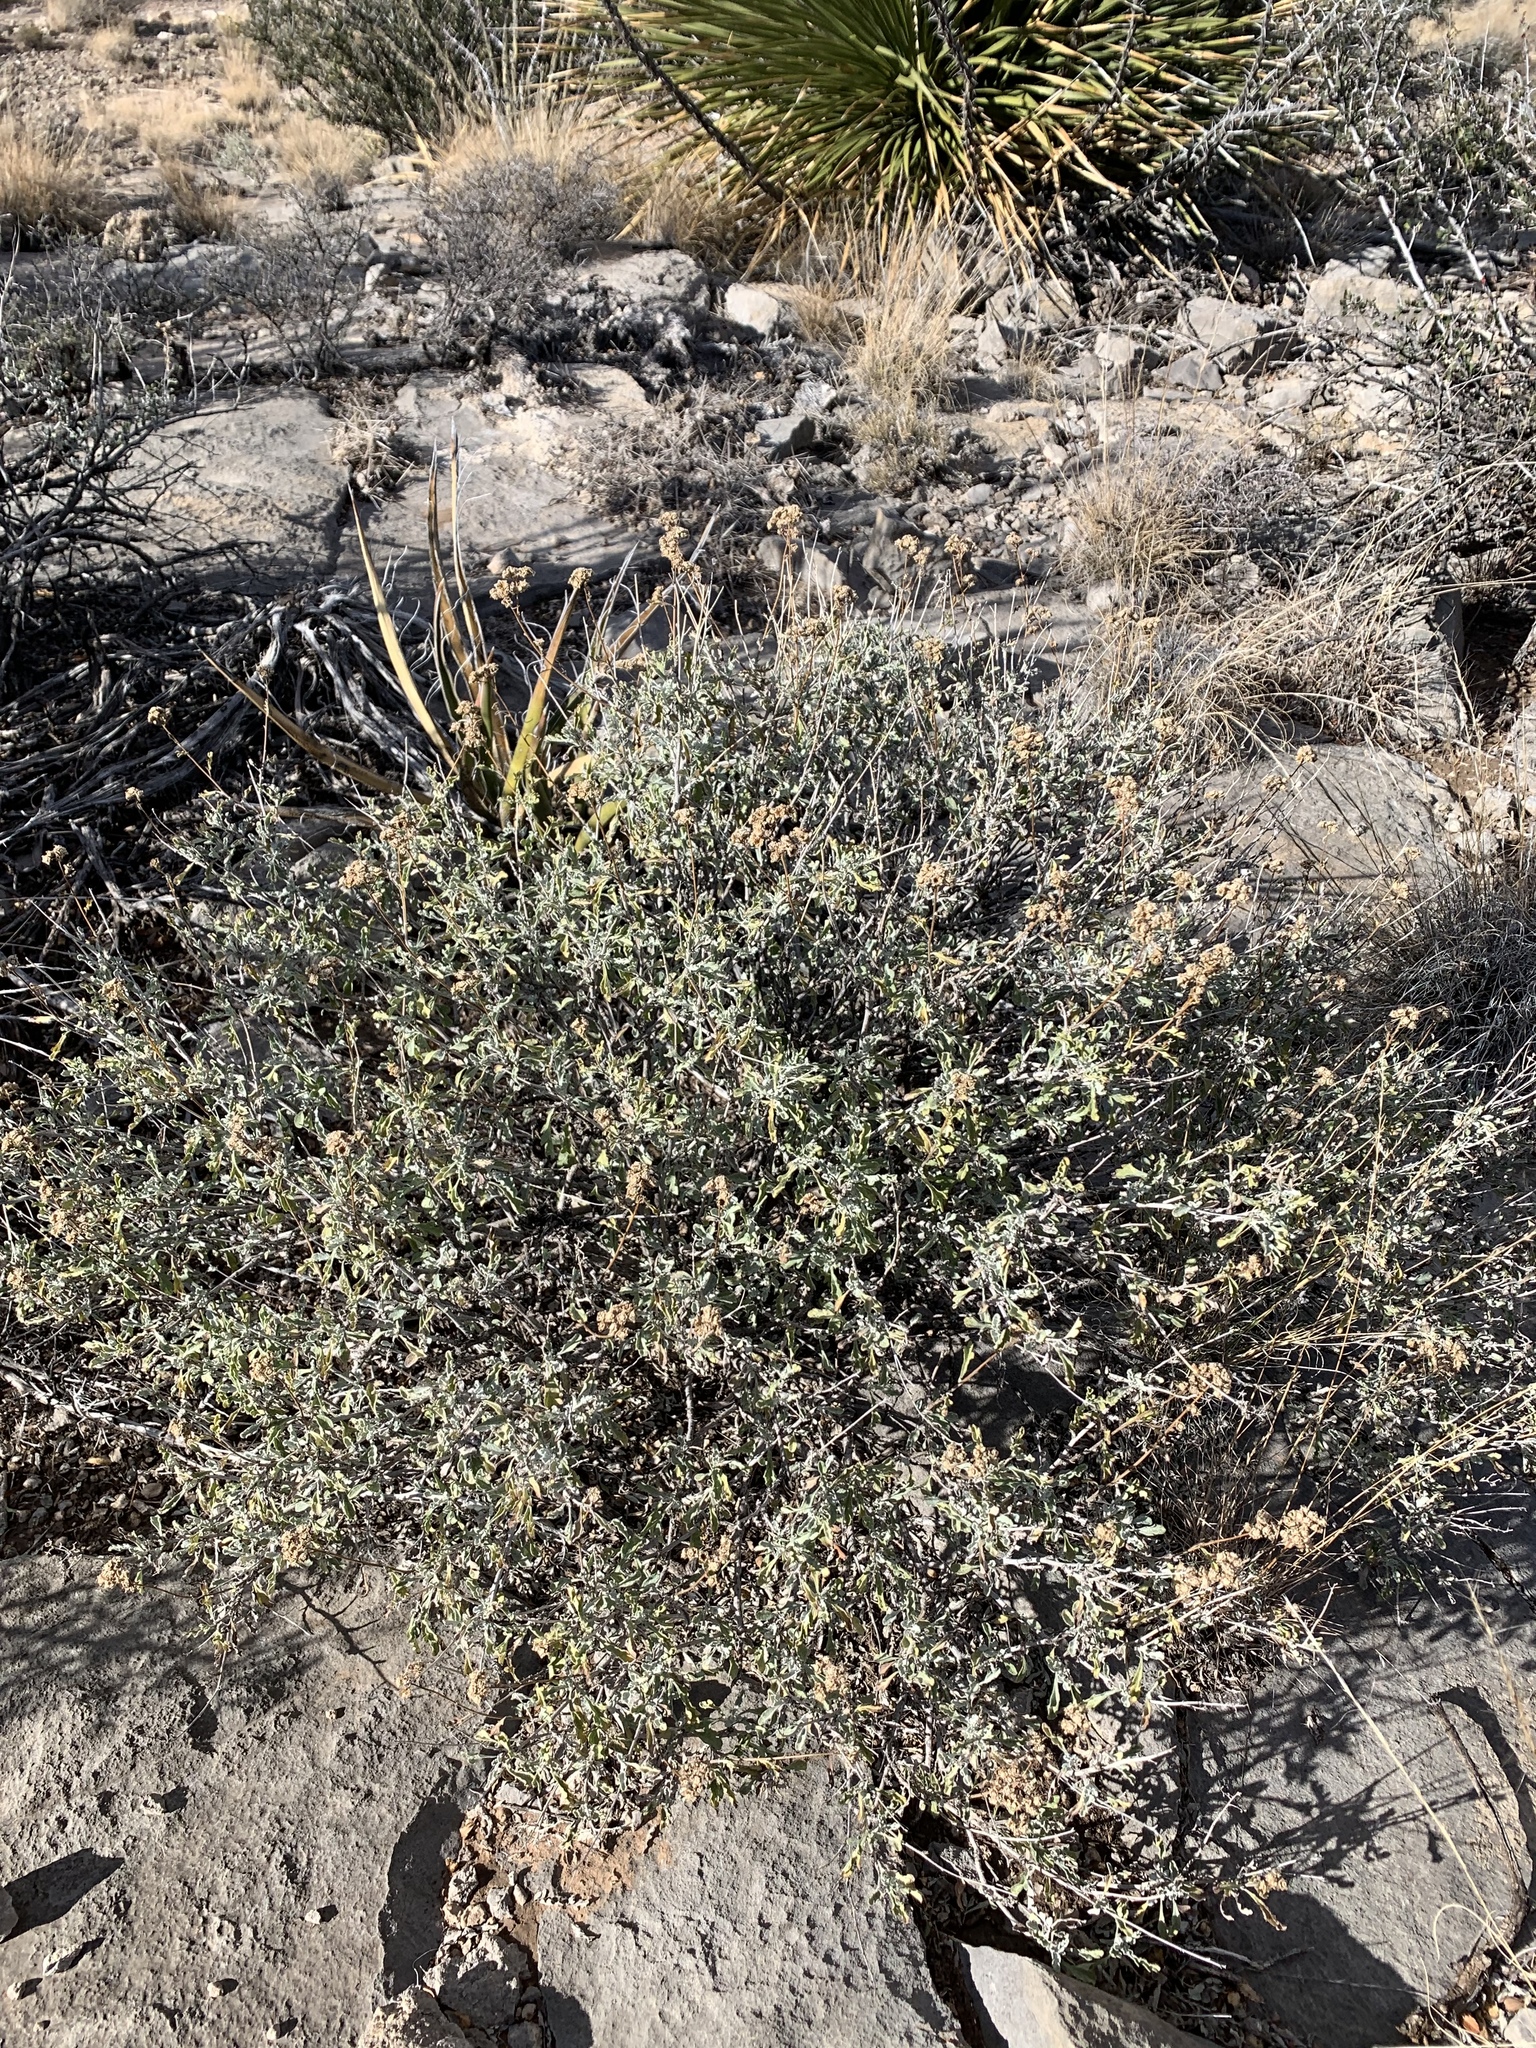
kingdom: Plantae
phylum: Tracheophyta
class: Magnoliopsida
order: Asterales
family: Asteraceae
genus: Parthenium
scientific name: Parthenium incanum
